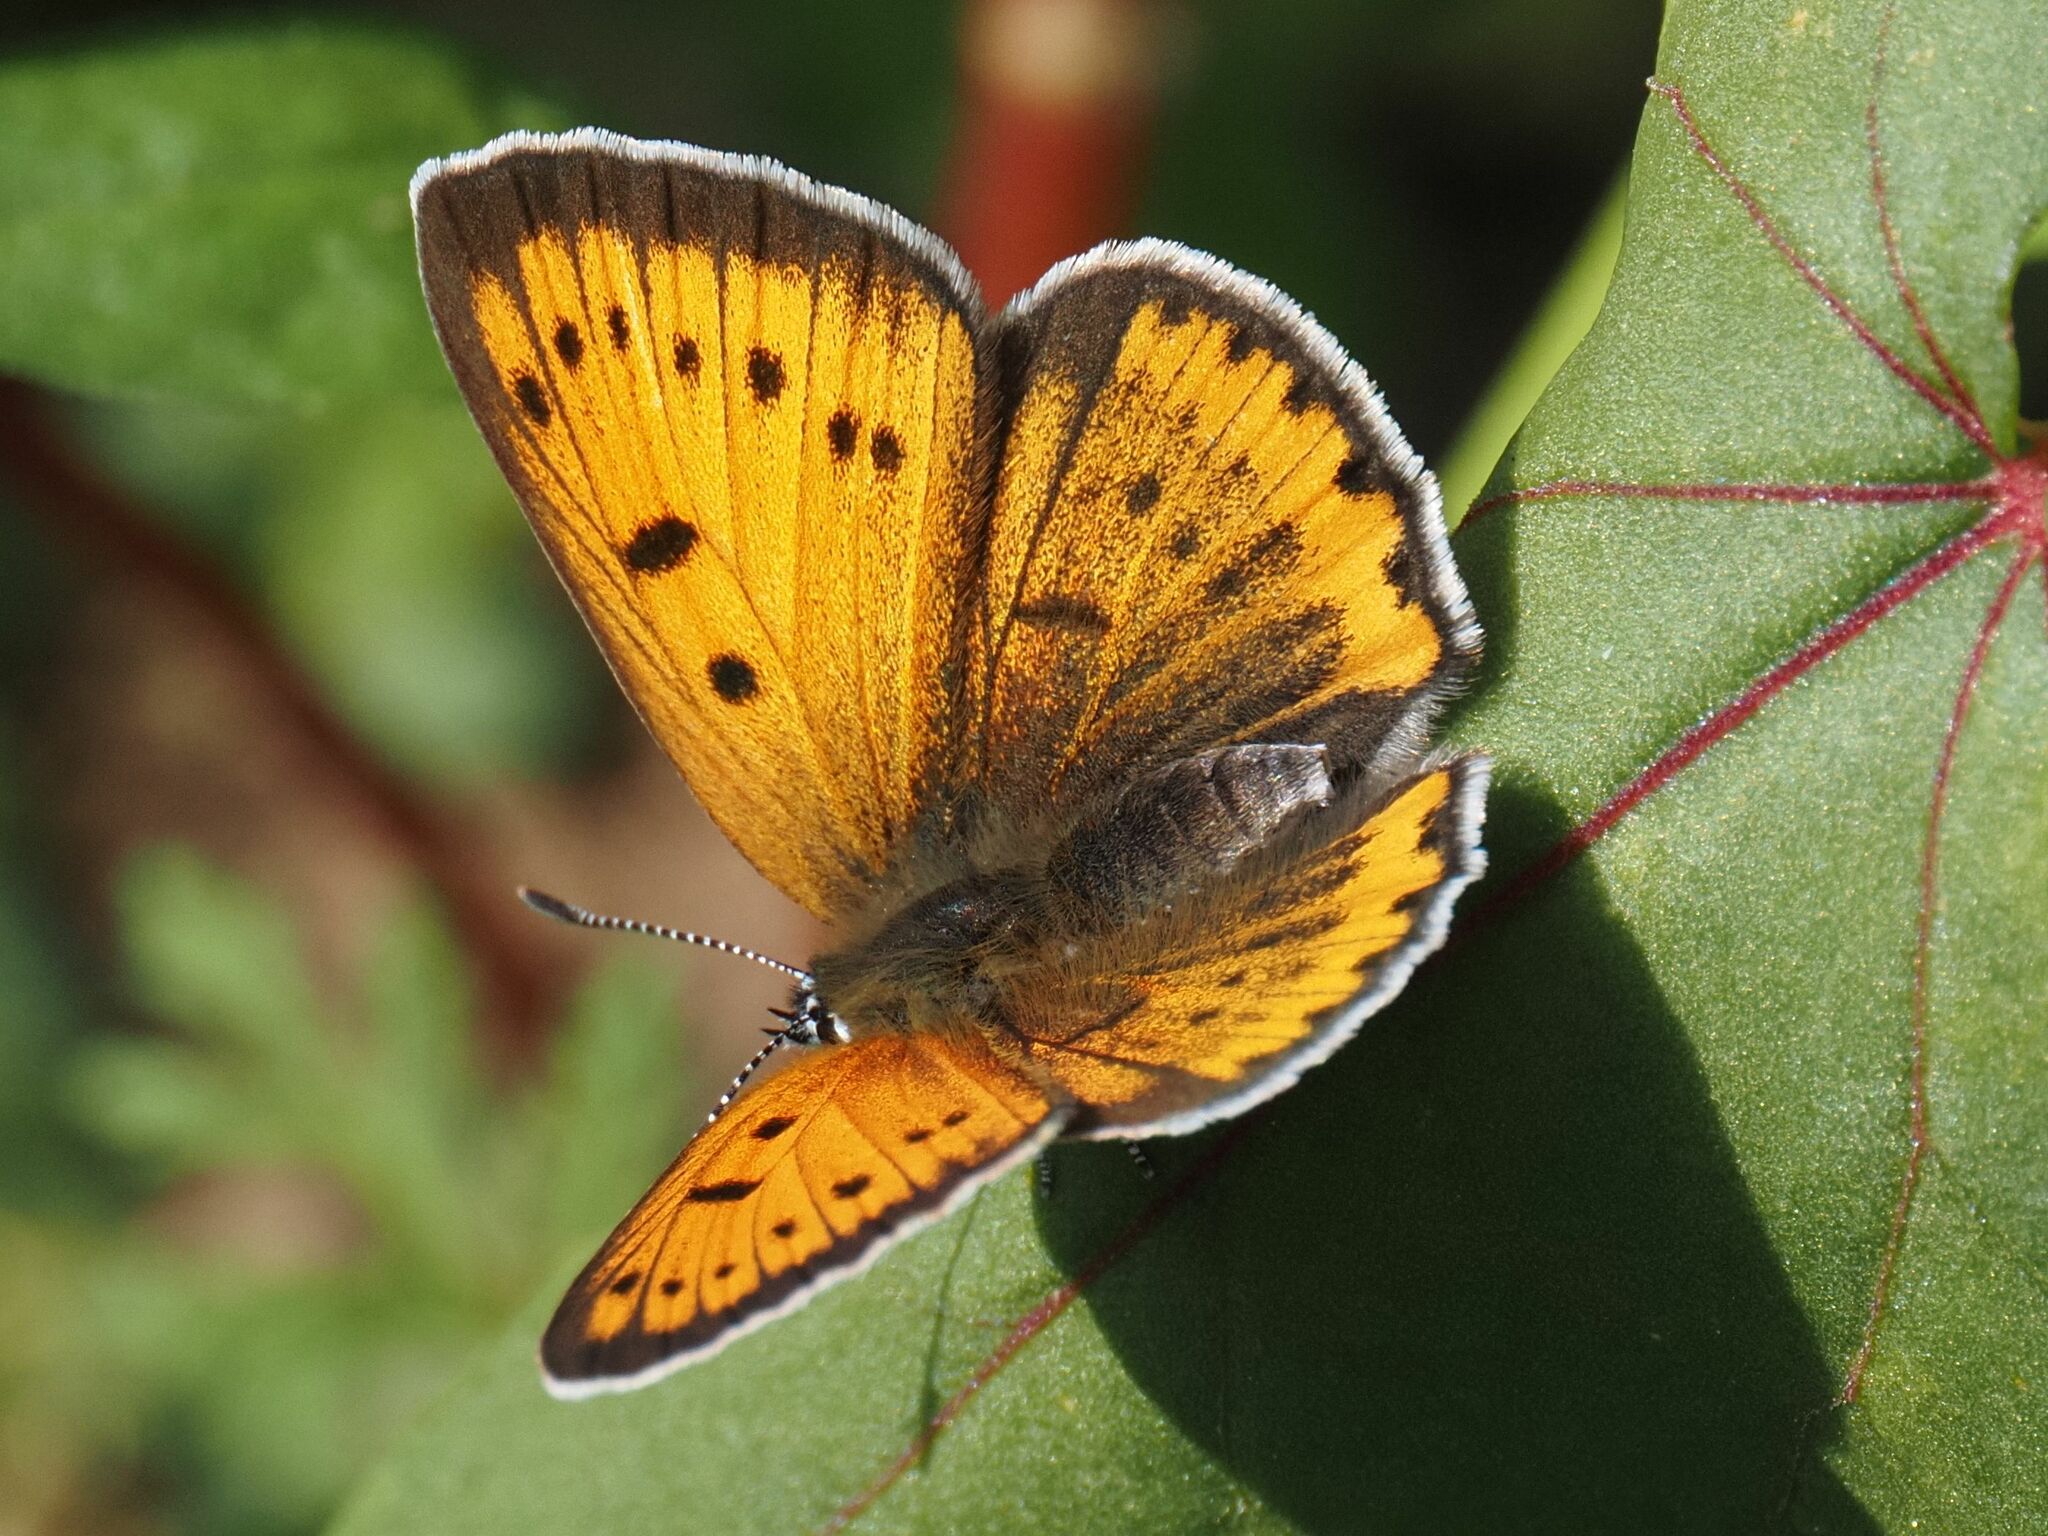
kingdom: Animalia
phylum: Arthropoda
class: Insecta
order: Lepidoptera
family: Lycaenidae
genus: Lycaena
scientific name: Lycaena dispar
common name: Large copper
